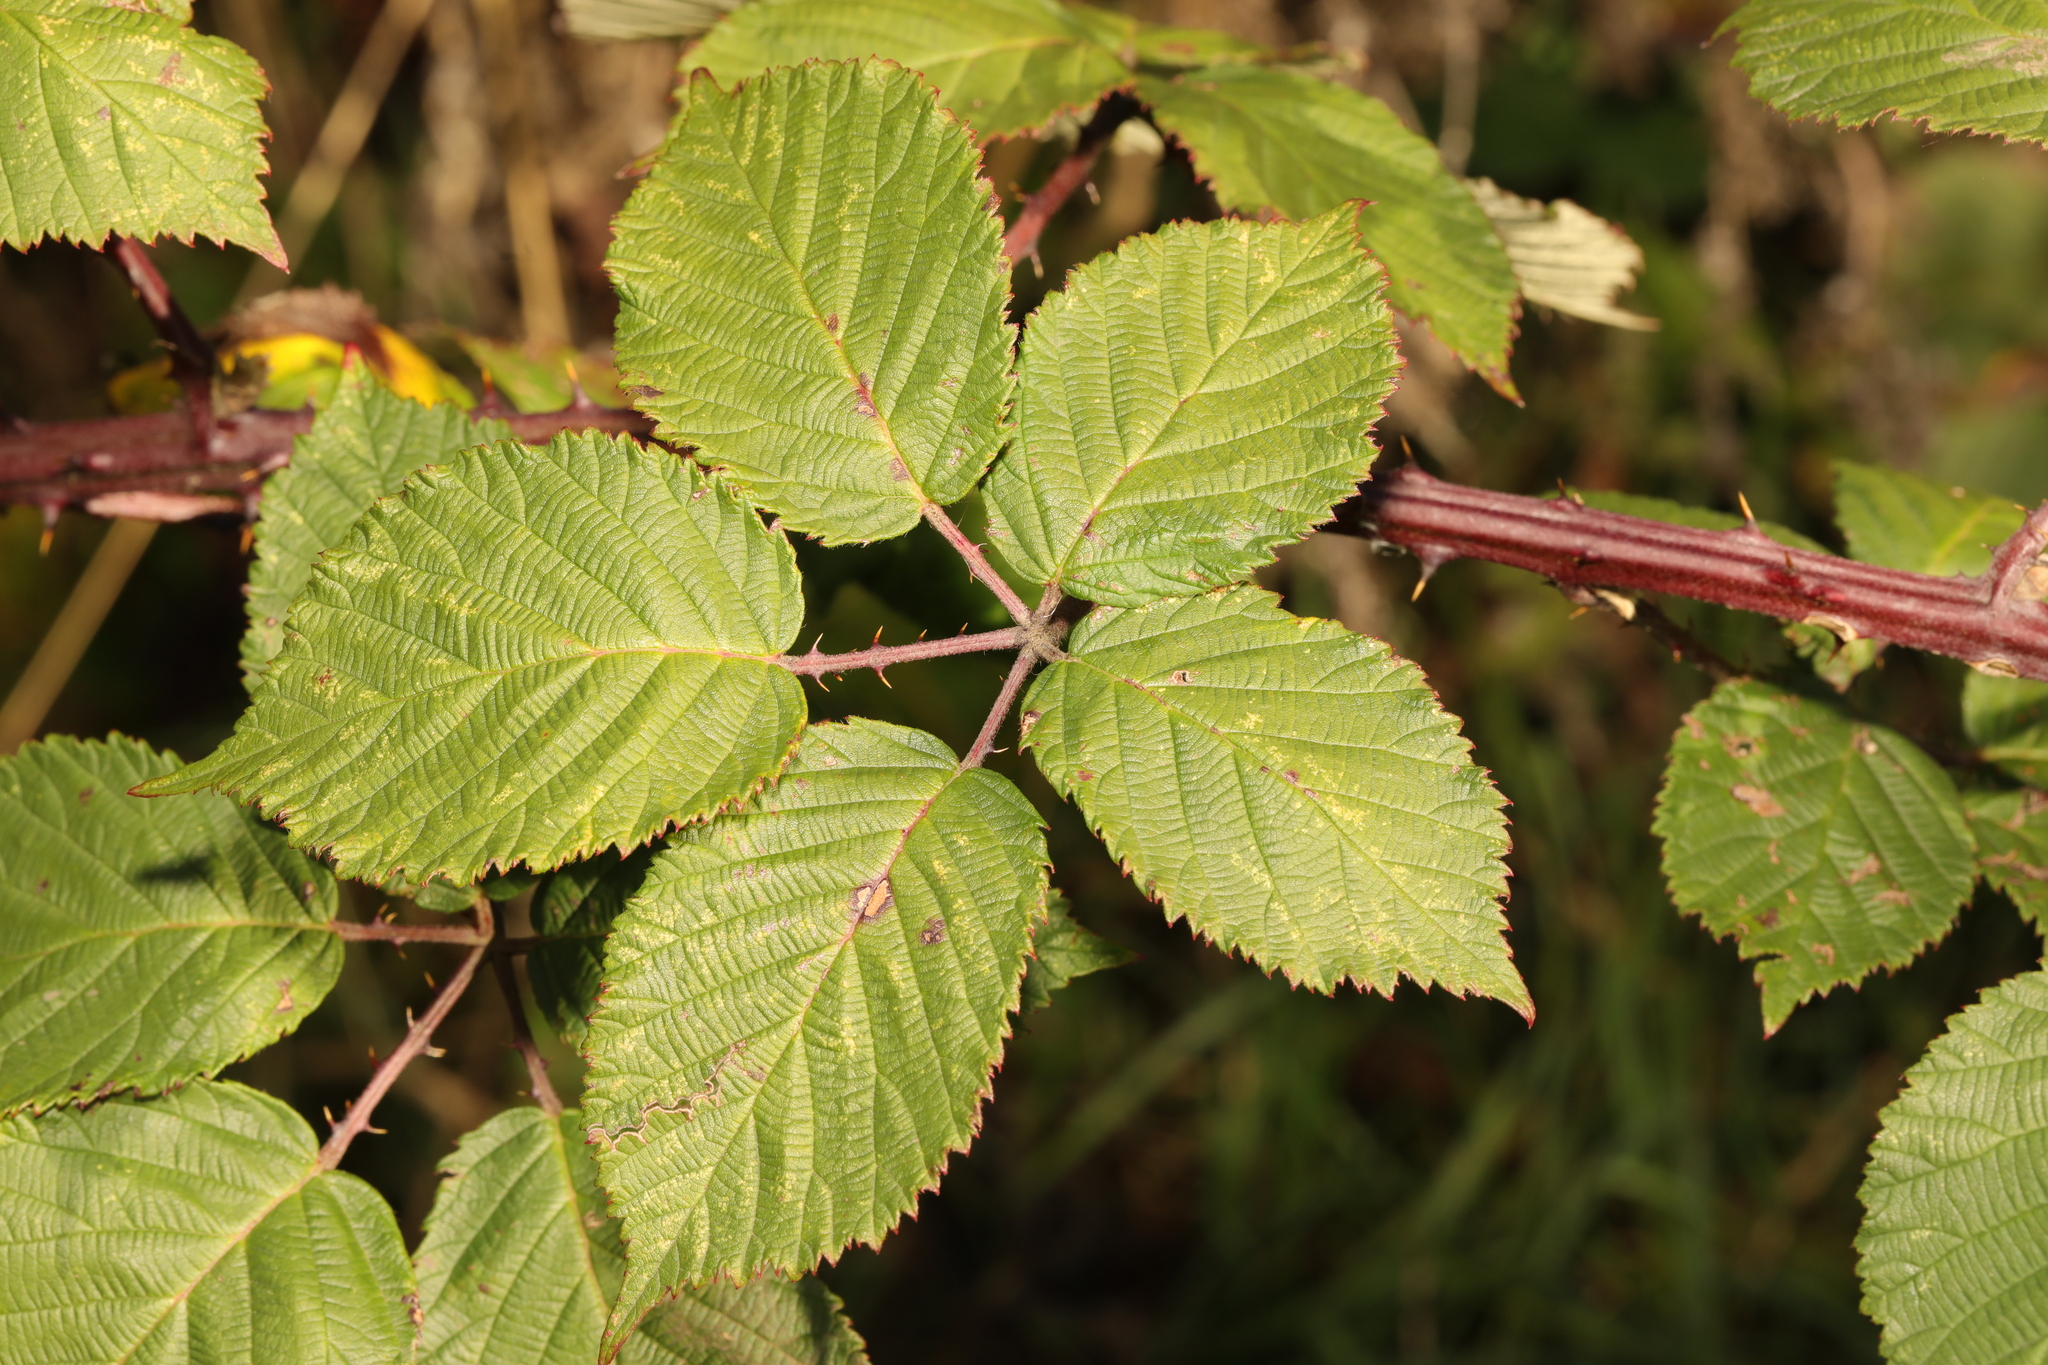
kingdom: Plantae
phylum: Tracheophyta
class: Magnoliopsida
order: Rosales
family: Rosaceae
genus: Rubus
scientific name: Rubus armeniacus
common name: Himalayan blackberry
